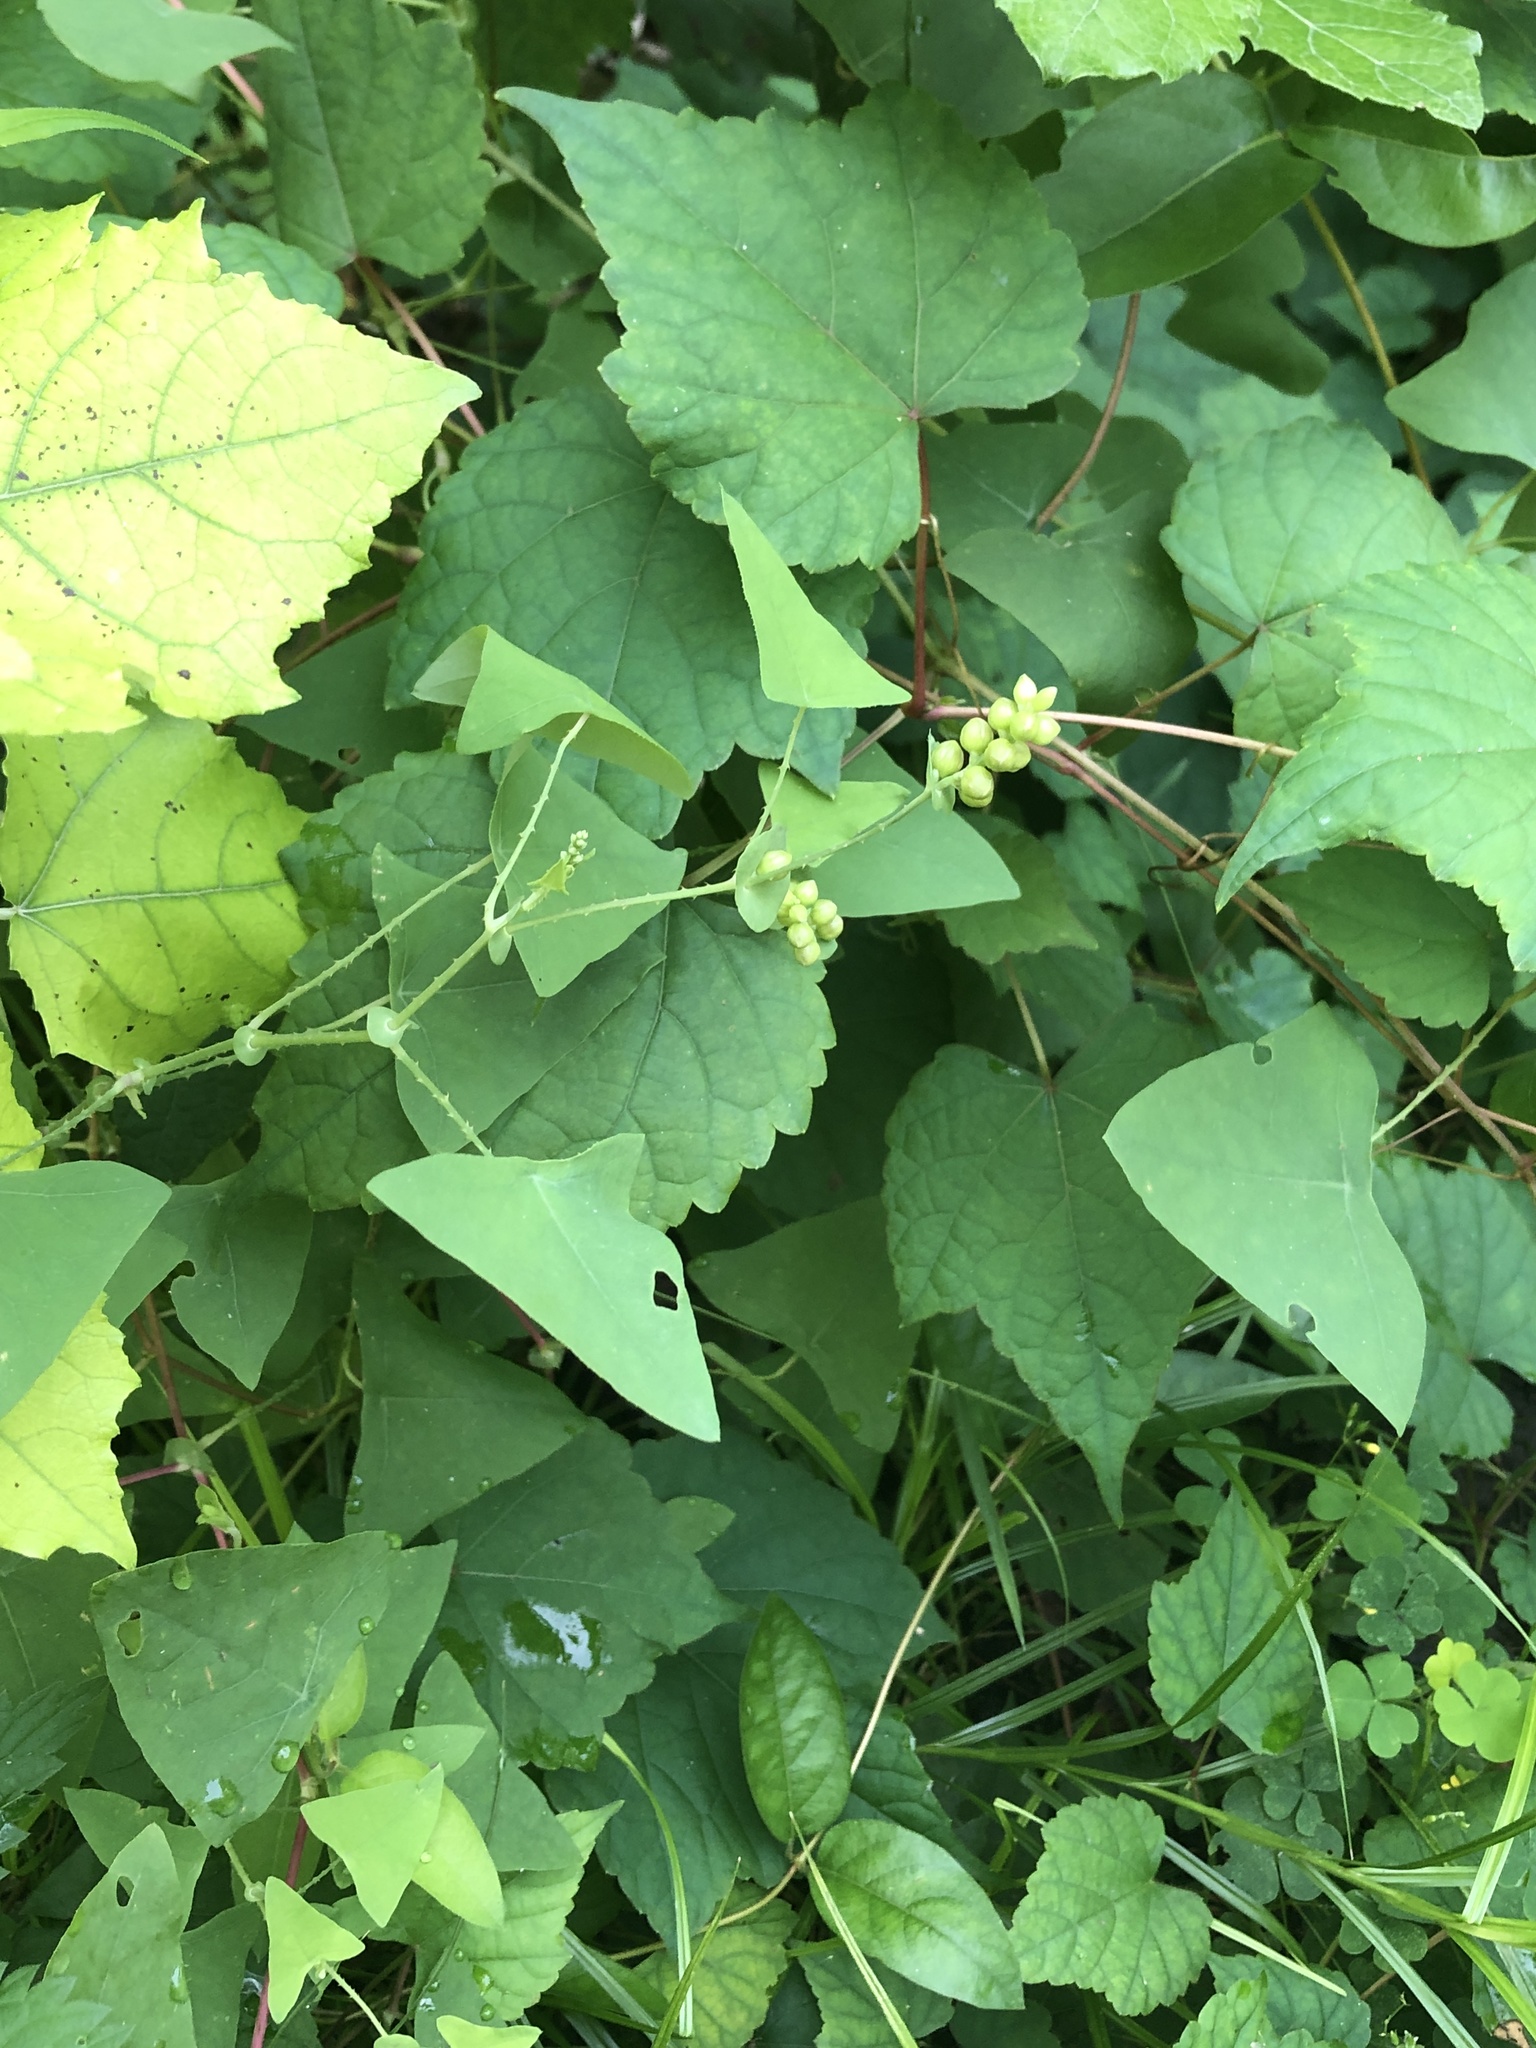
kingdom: Plantae
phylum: Tracheophyta
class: Magnoliopsida
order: Caryophyllales
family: Polygonaceae
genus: Persicaria
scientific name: Persicaria perfoliata
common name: Asiatic tearthumb
